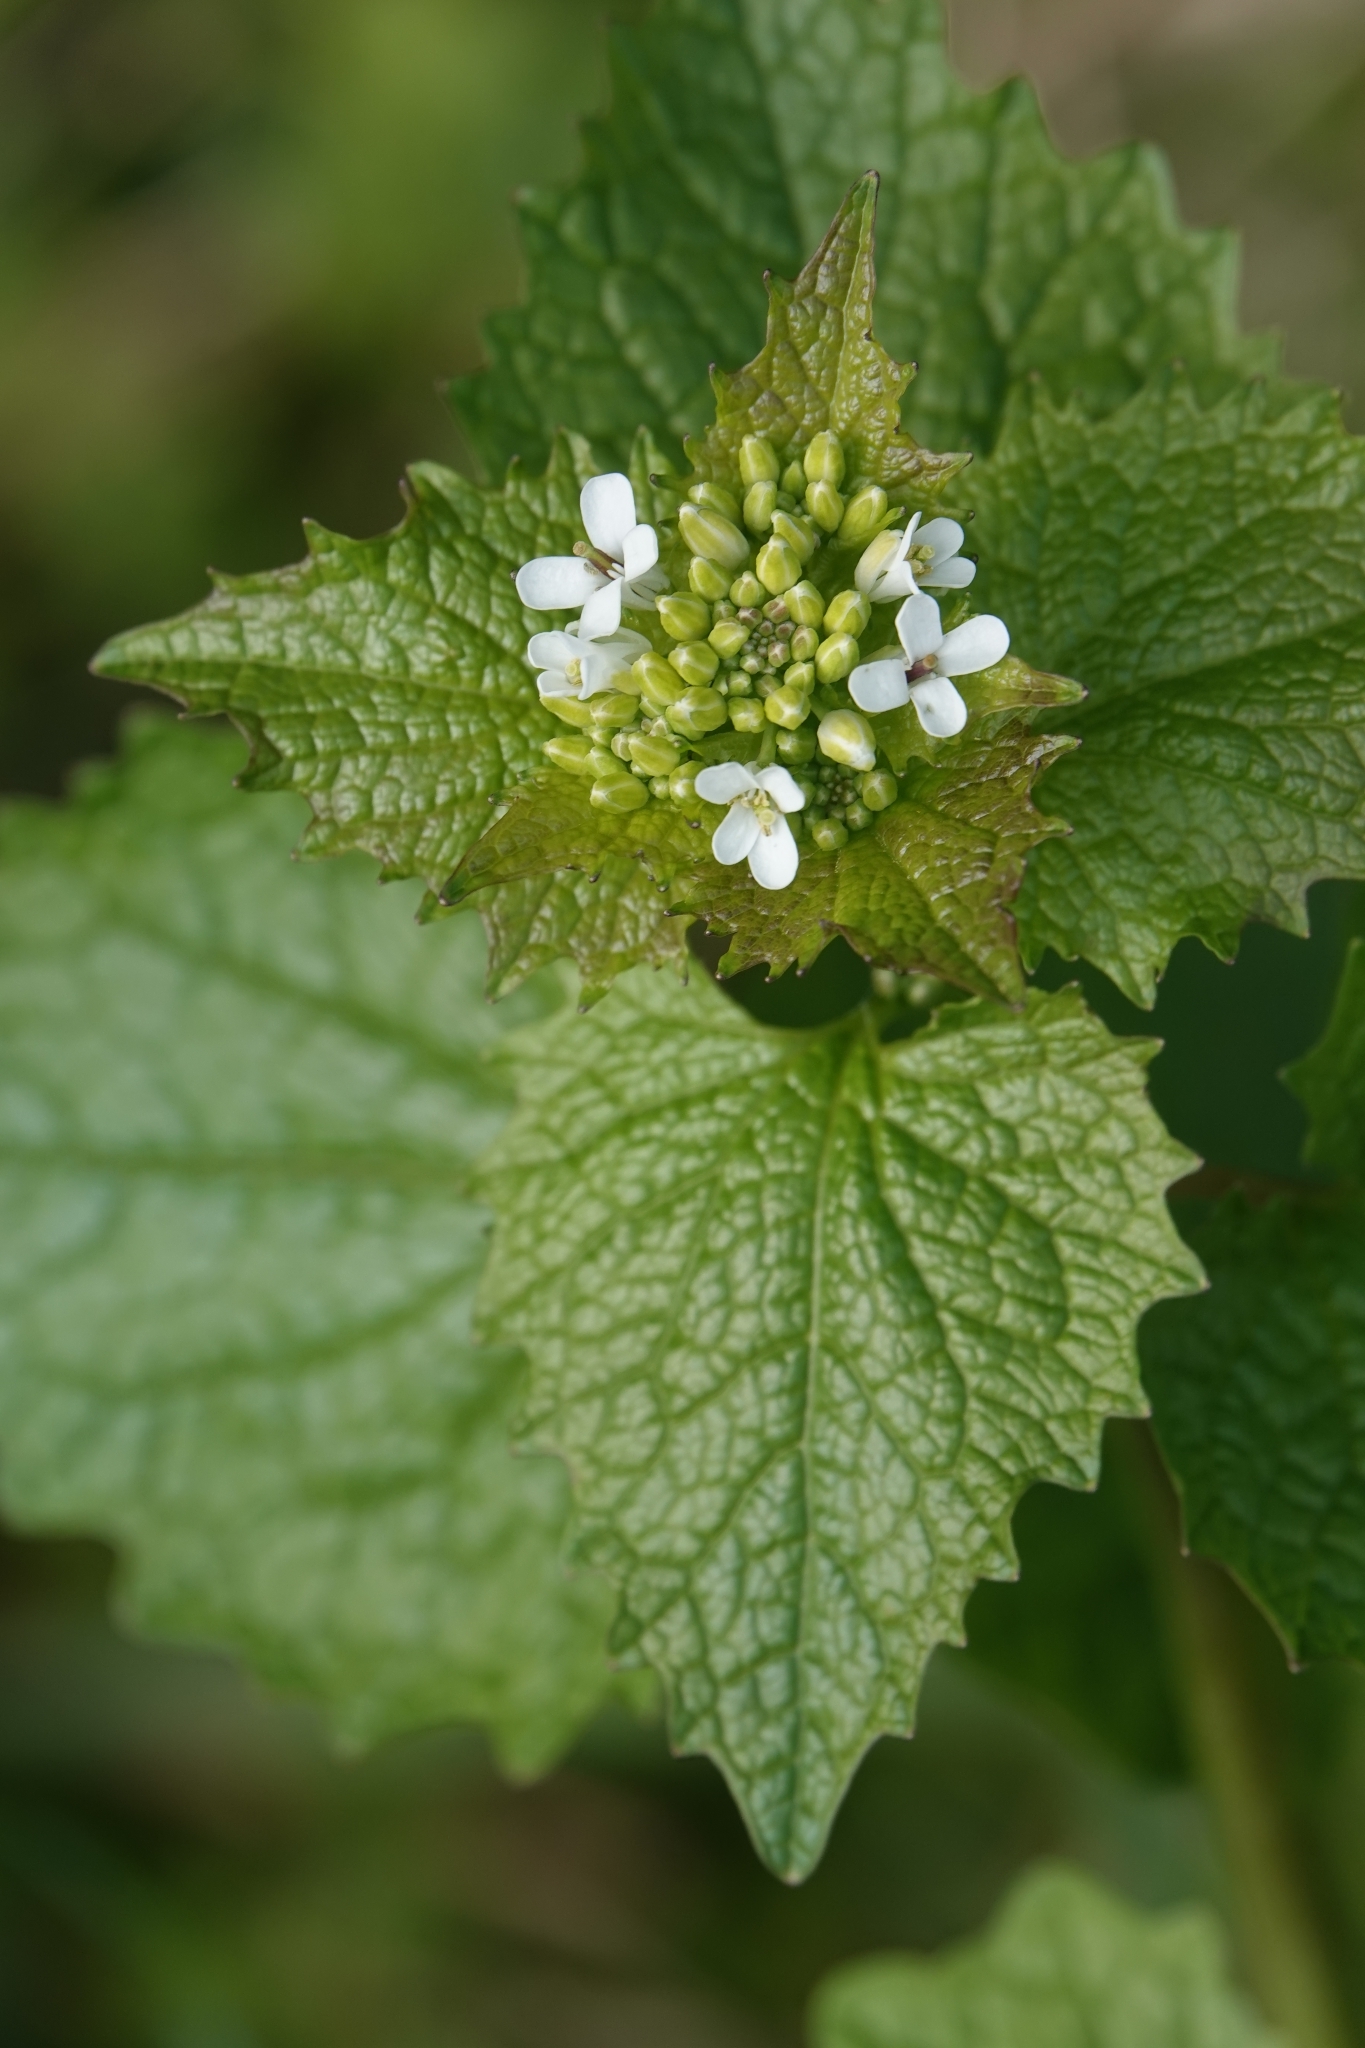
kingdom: Plantae
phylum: Tracheophyta
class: Magnoliopsida
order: Brassicales
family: Brassicaceae
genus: Alliaria
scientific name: Alliaria petiolata
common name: Garlic mustard
